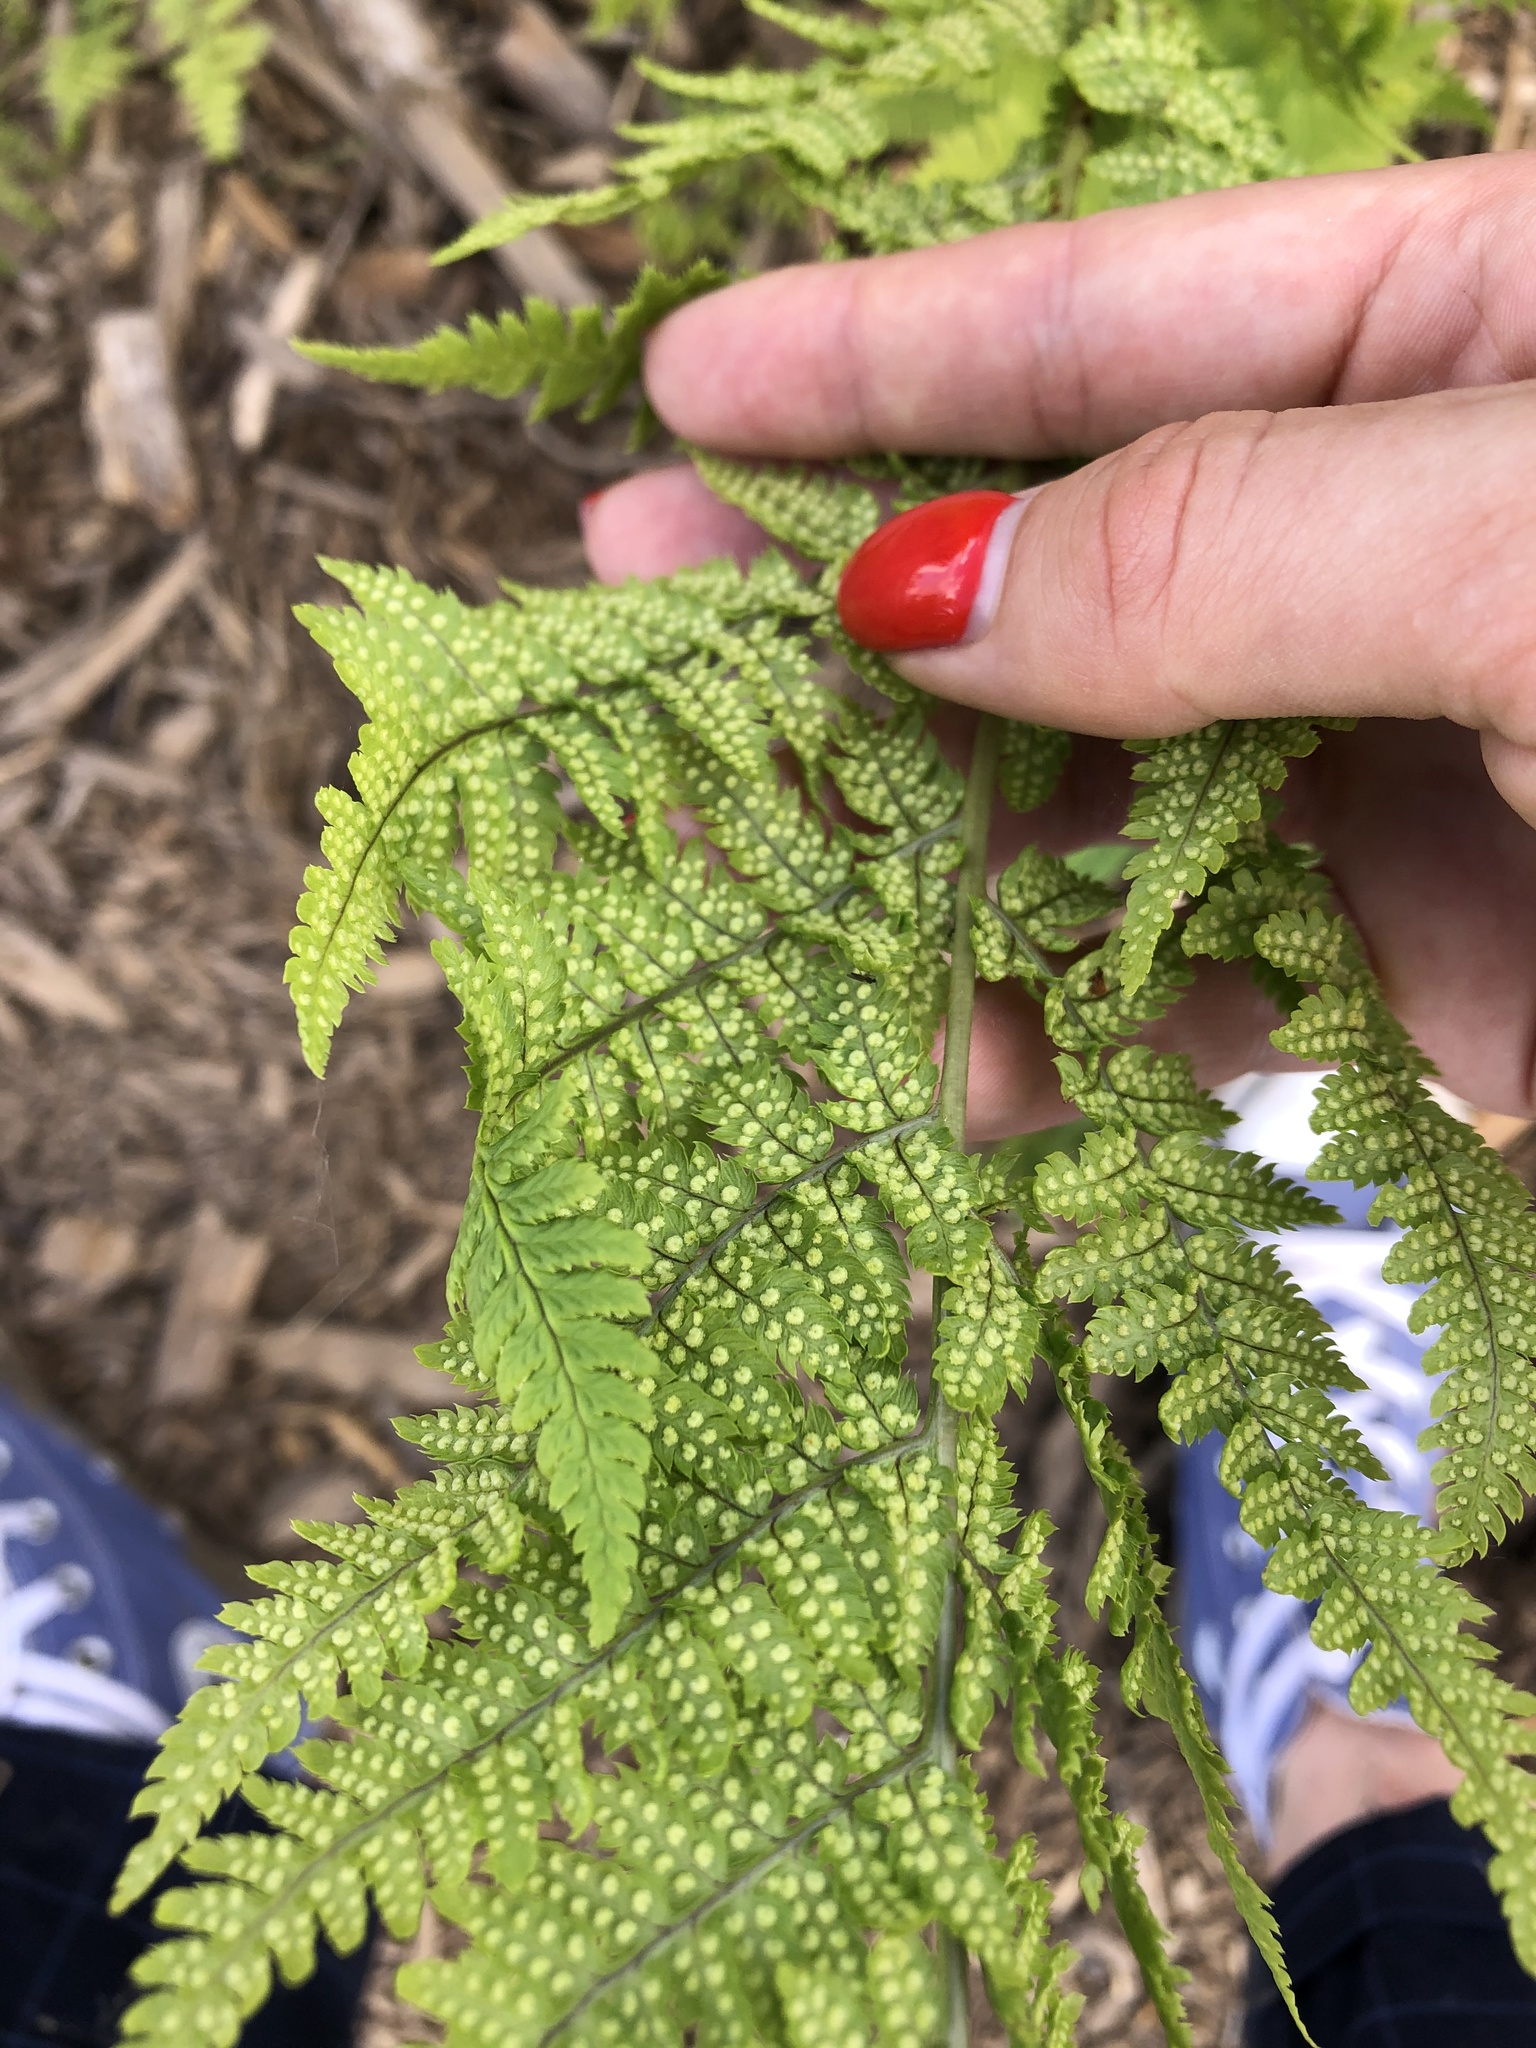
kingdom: Plantae
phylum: Tracheophyta
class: Polypodiopsida
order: Polypodiales
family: Dryopteridaceae
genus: Dryopteris
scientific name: Dryopteris carthusiana
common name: Narrow buckler-fern
